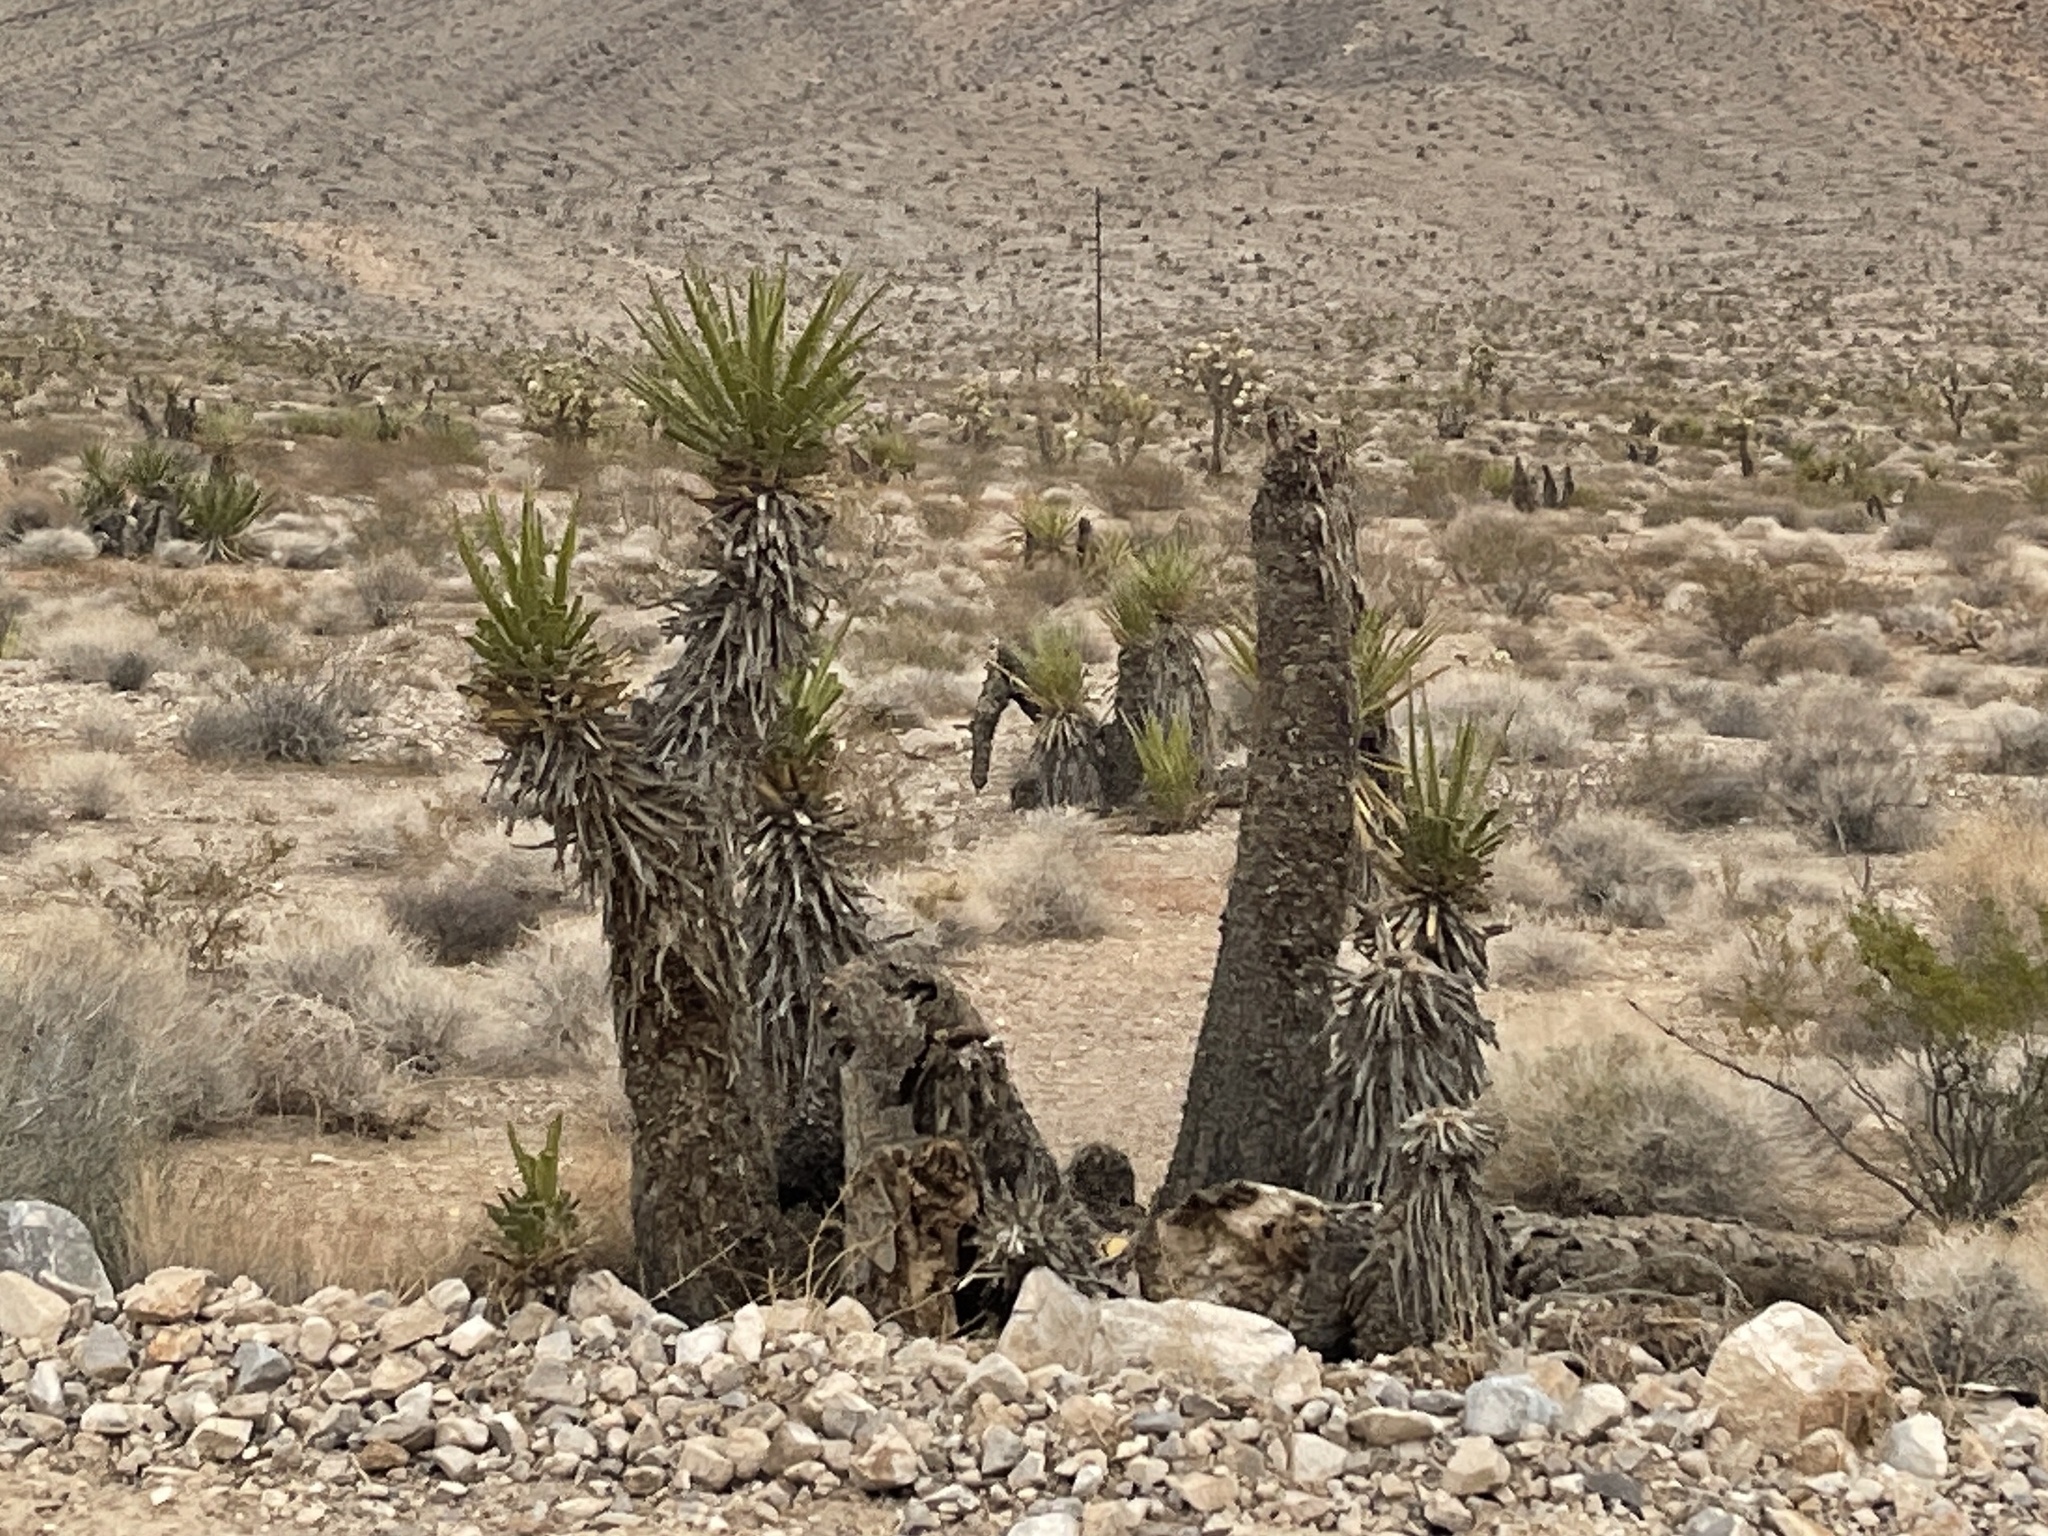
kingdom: Plantae
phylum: Tracheophyta
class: Liliopsida
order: Asparagales
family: Asparagaceae
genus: Yucca
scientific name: Yucca schidigera
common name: Mojave yucca
